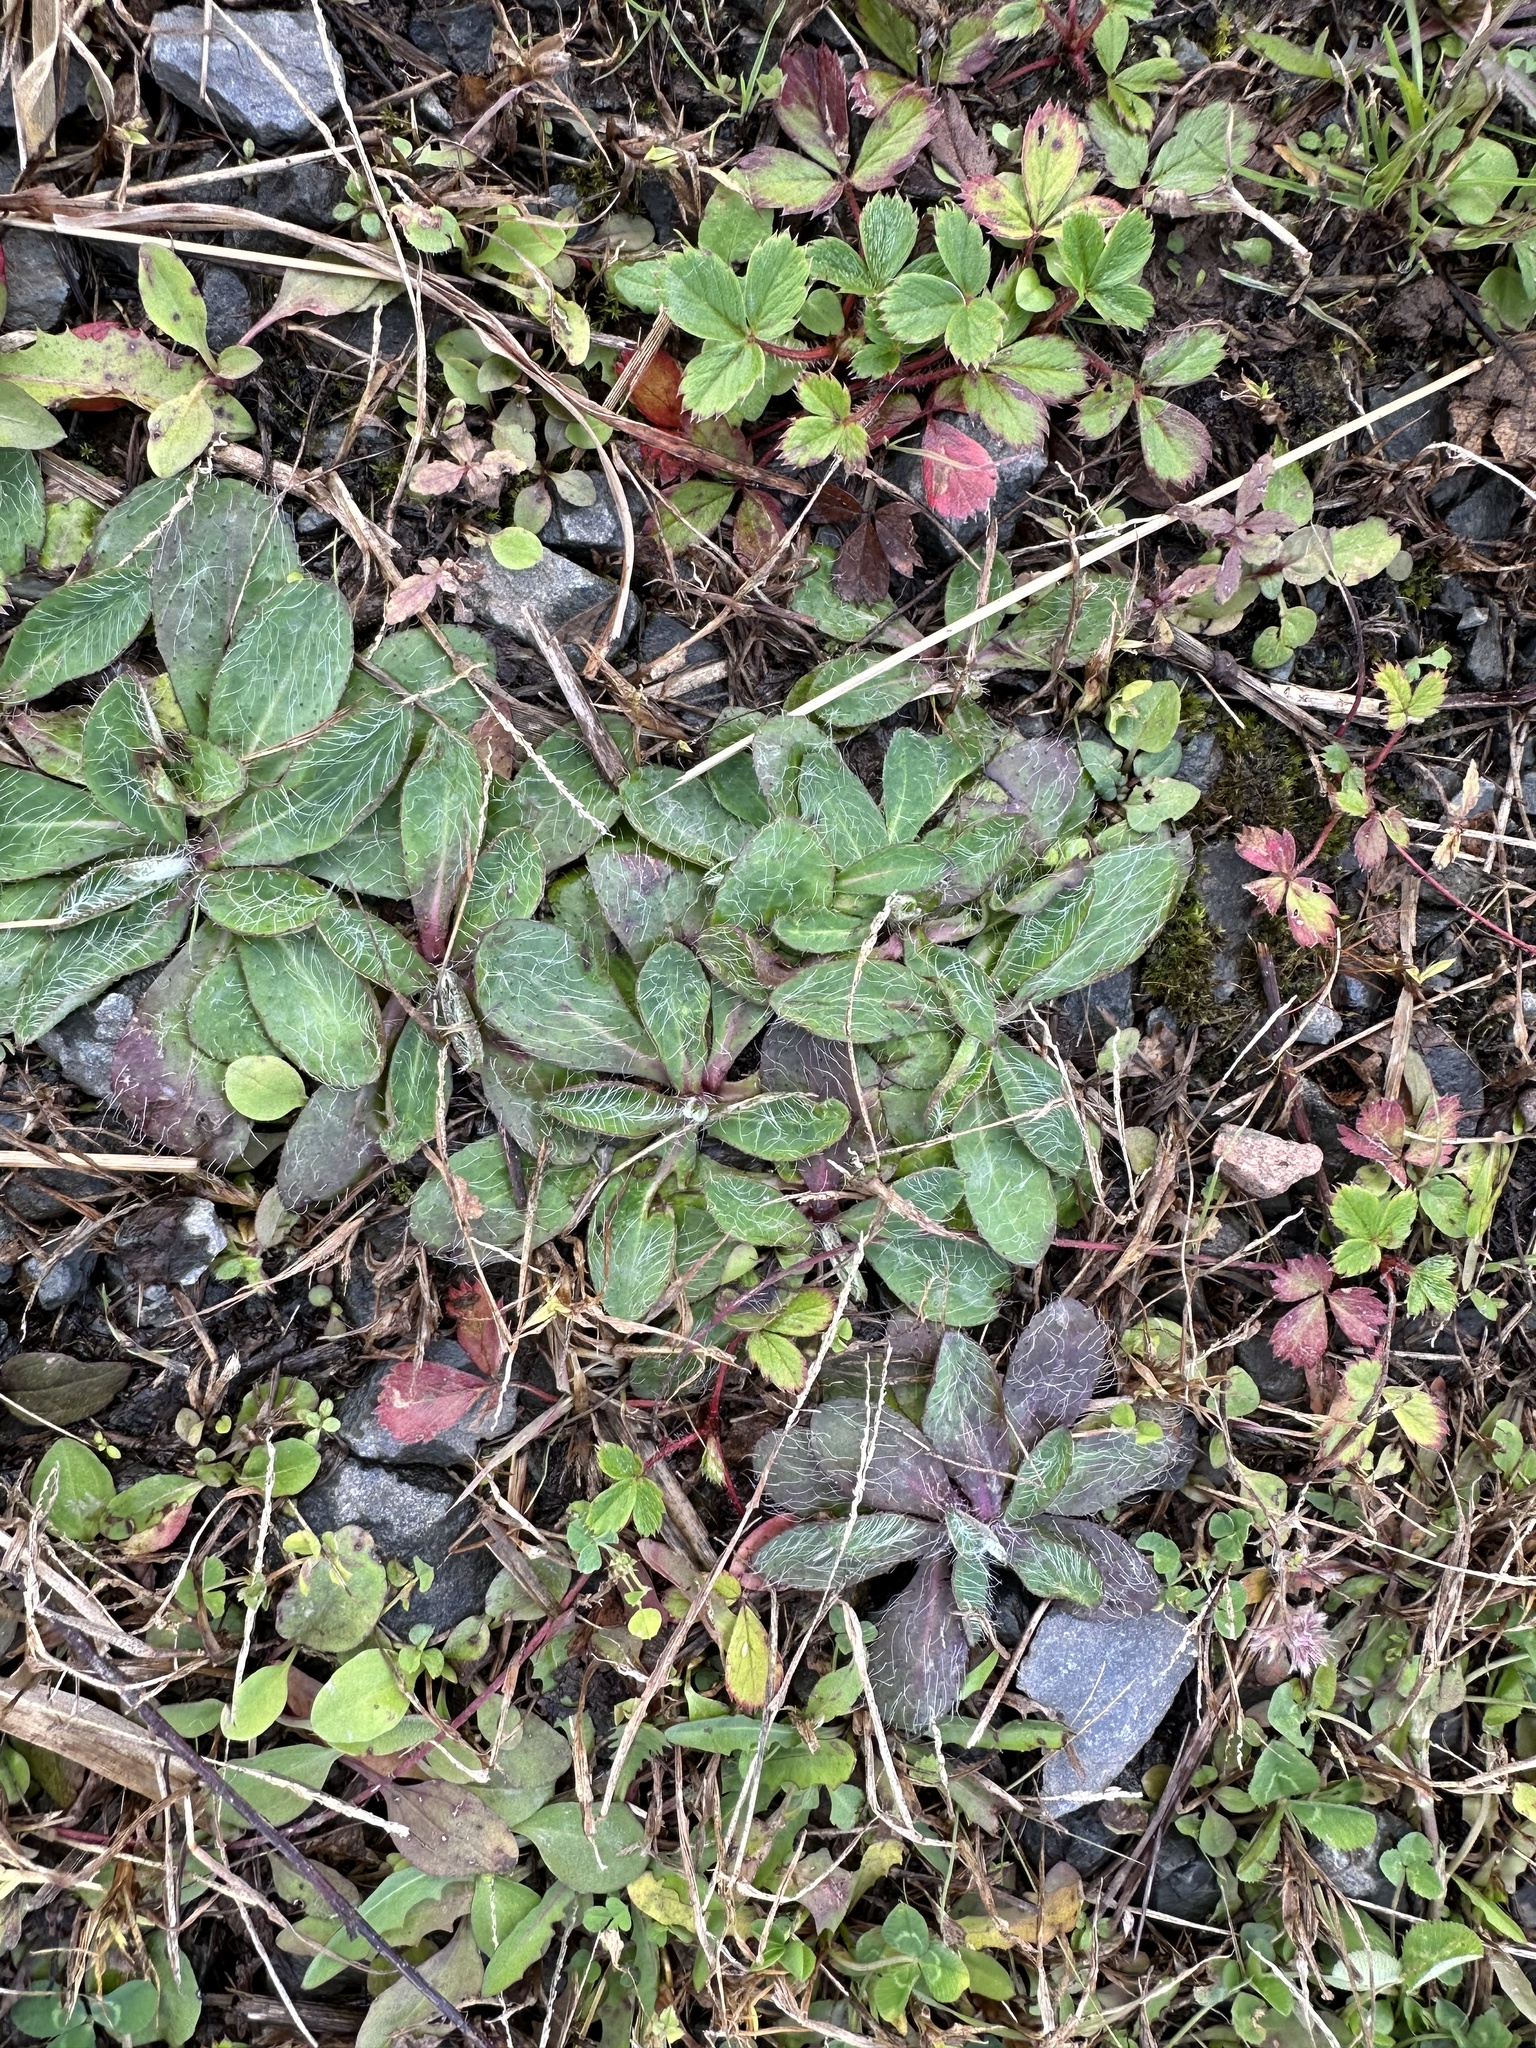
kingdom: Plantae
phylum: Tracheophyta
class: Magnoliopsida
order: Asterales
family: Asteraceae
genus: Pilosella
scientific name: Pilosella officinarum
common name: Mouse-ear hawkweed
